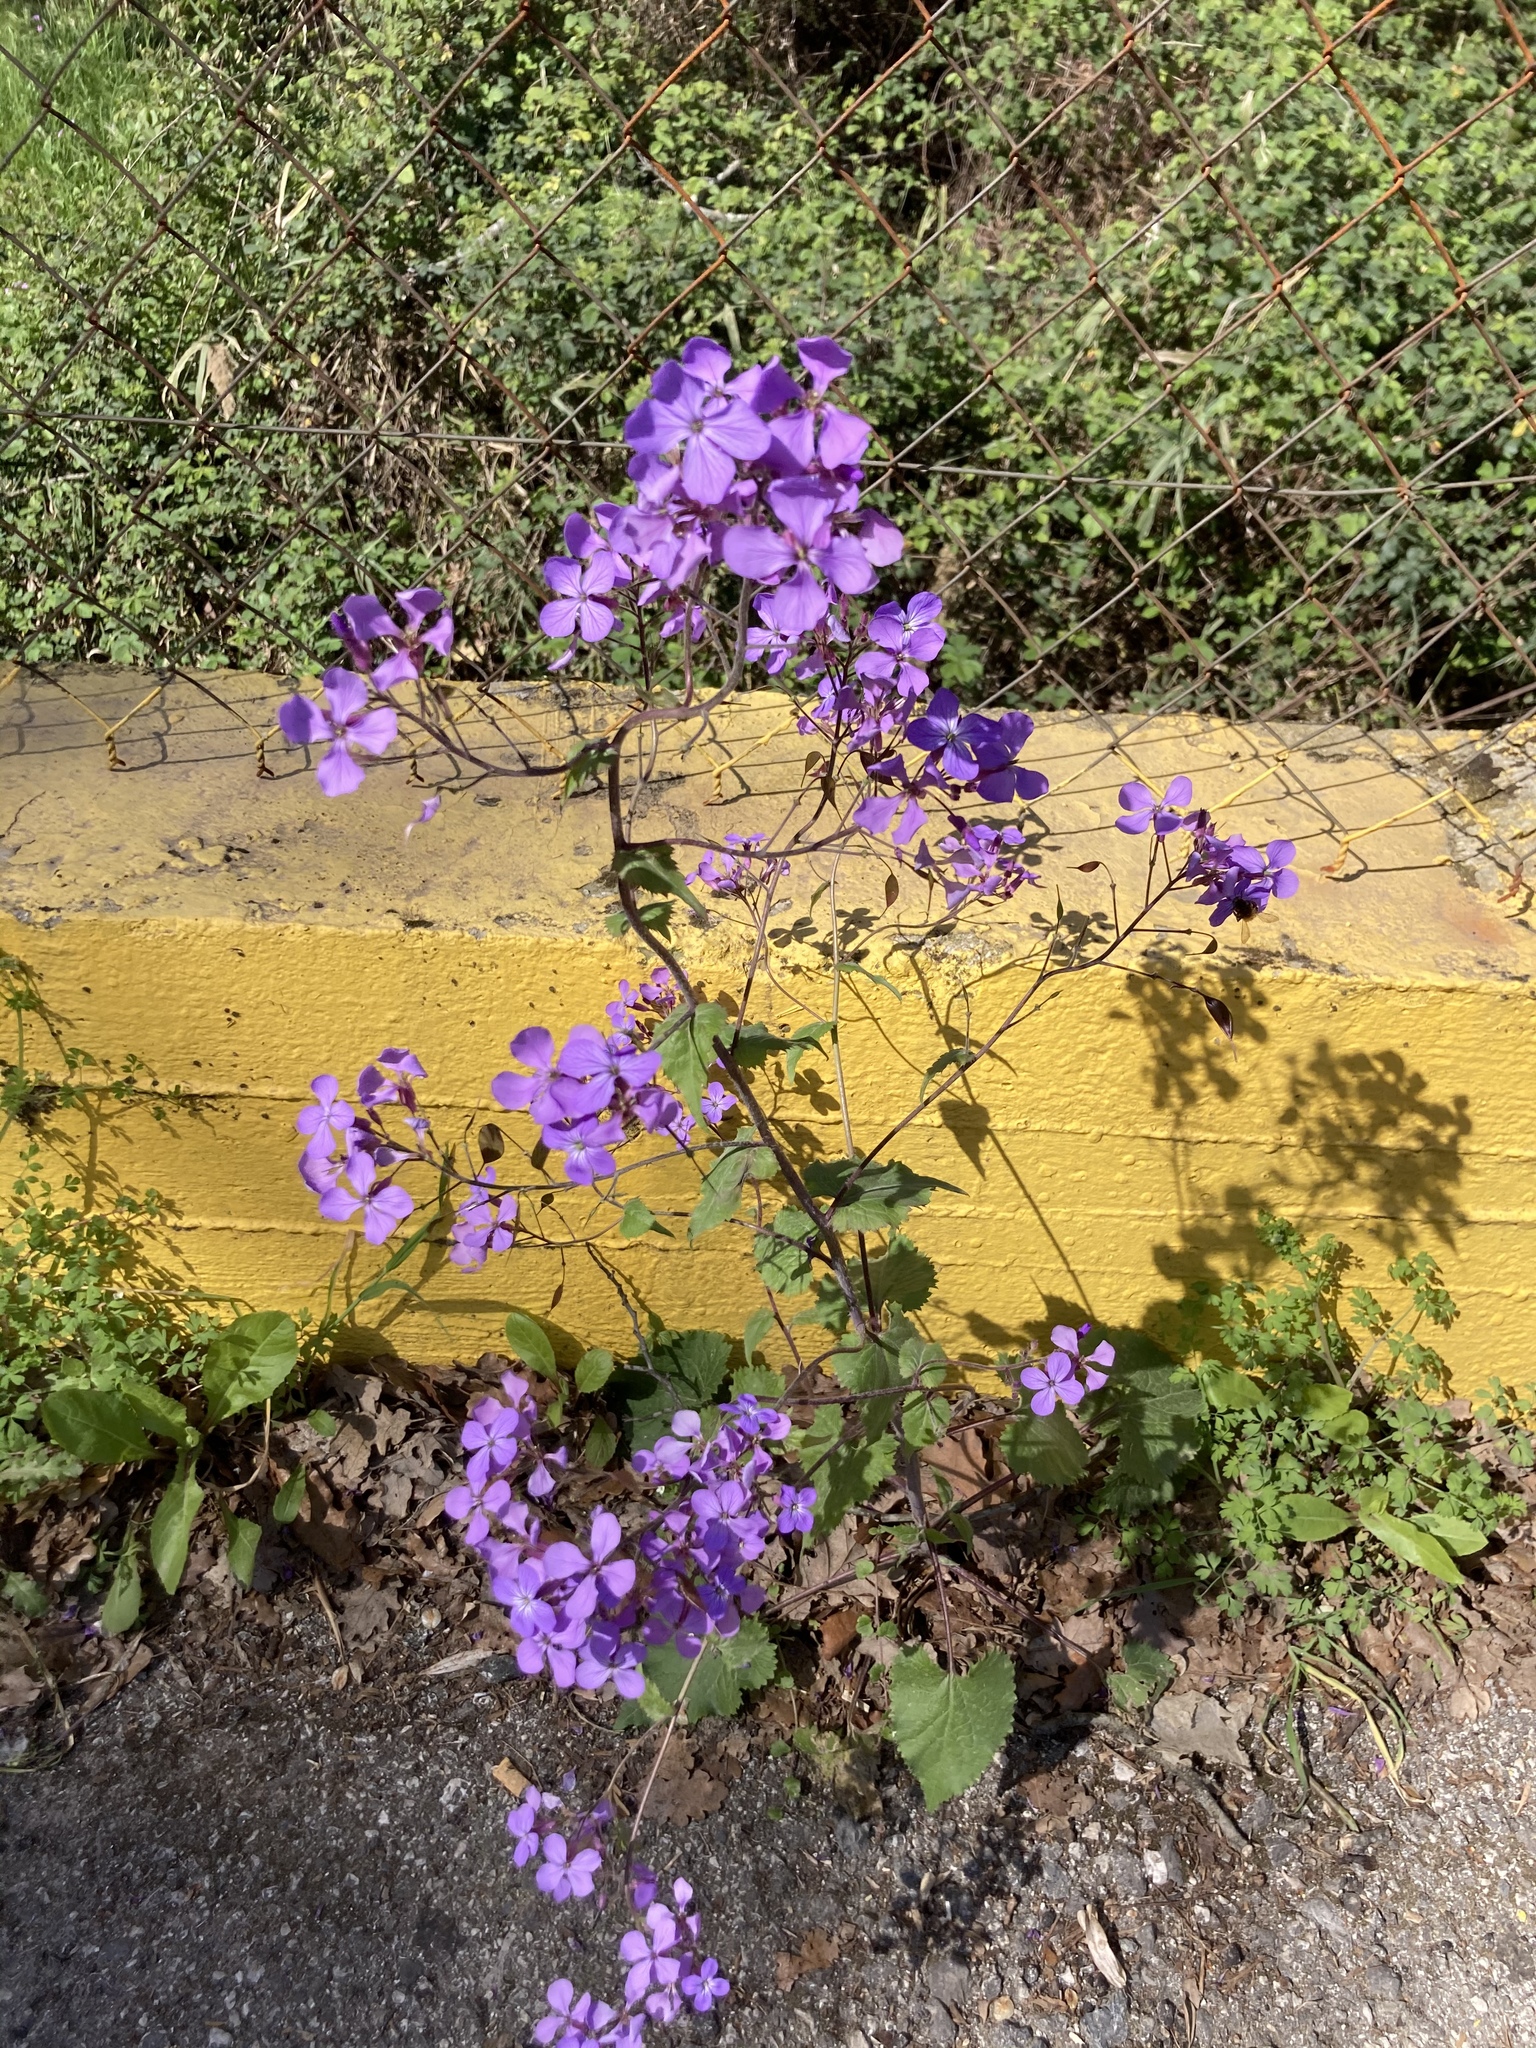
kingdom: Plantae
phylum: Tracheophyta
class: Magnoliopsida
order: Brassicales
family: Brassicaceae
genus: Lunaria
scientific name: Lunaria annua
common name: Honesty
